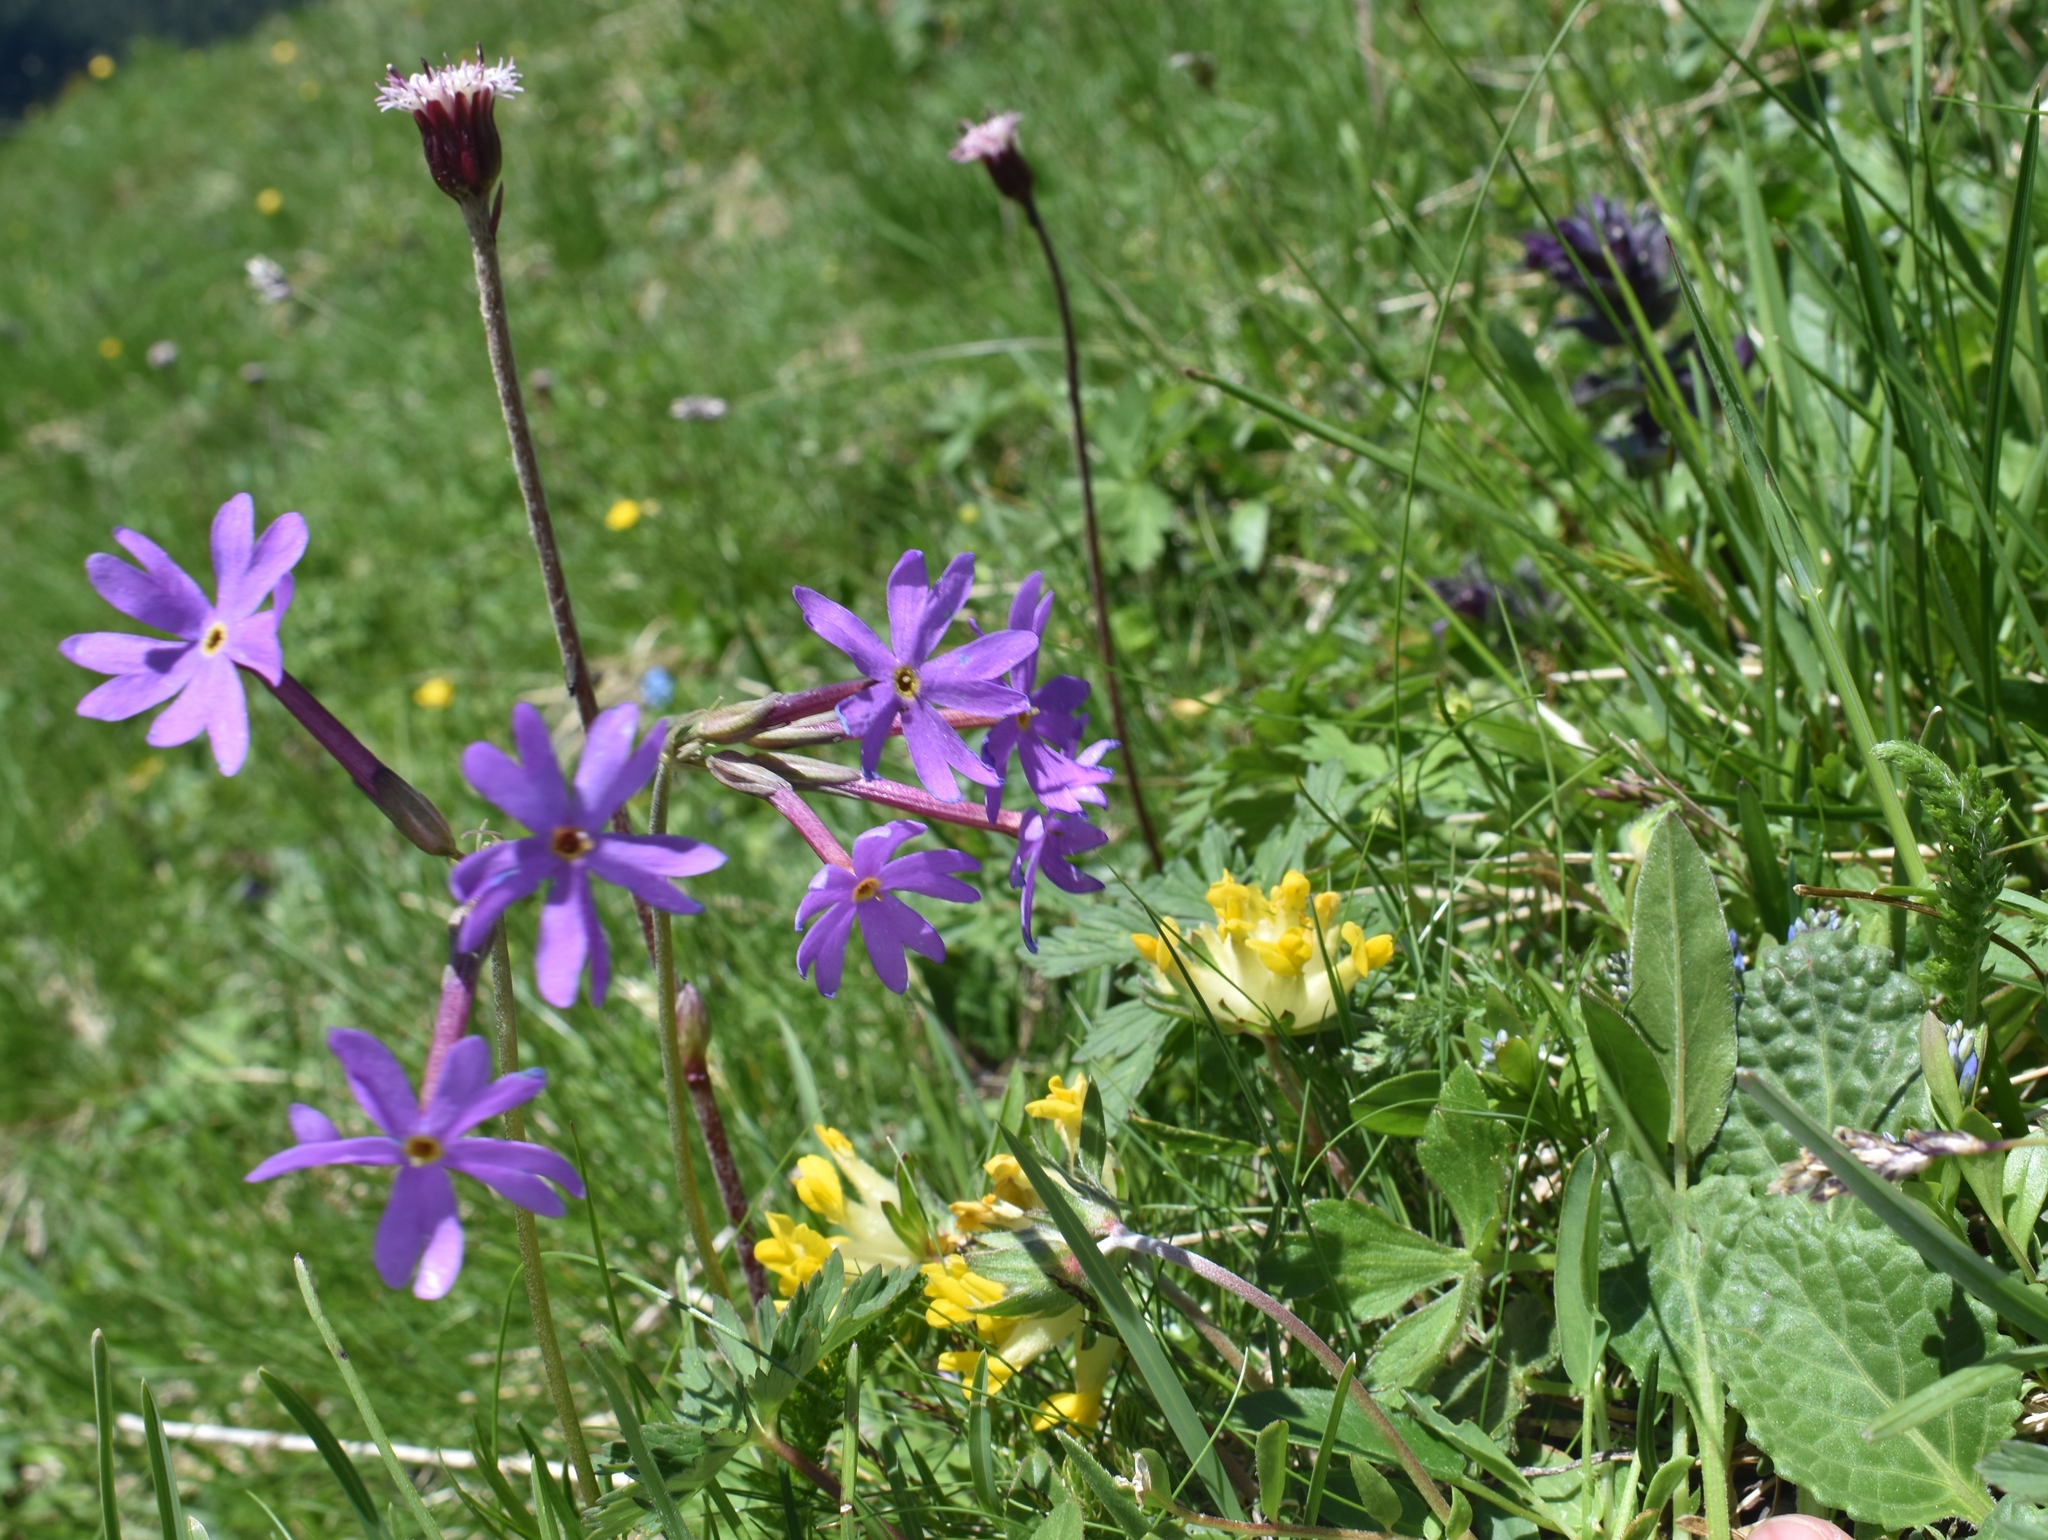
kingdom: Plantae
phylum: Tracheophyta
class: Magnoliopsida
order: Ericales
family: Primulaceae
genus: Primula
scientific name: Primula halleri
